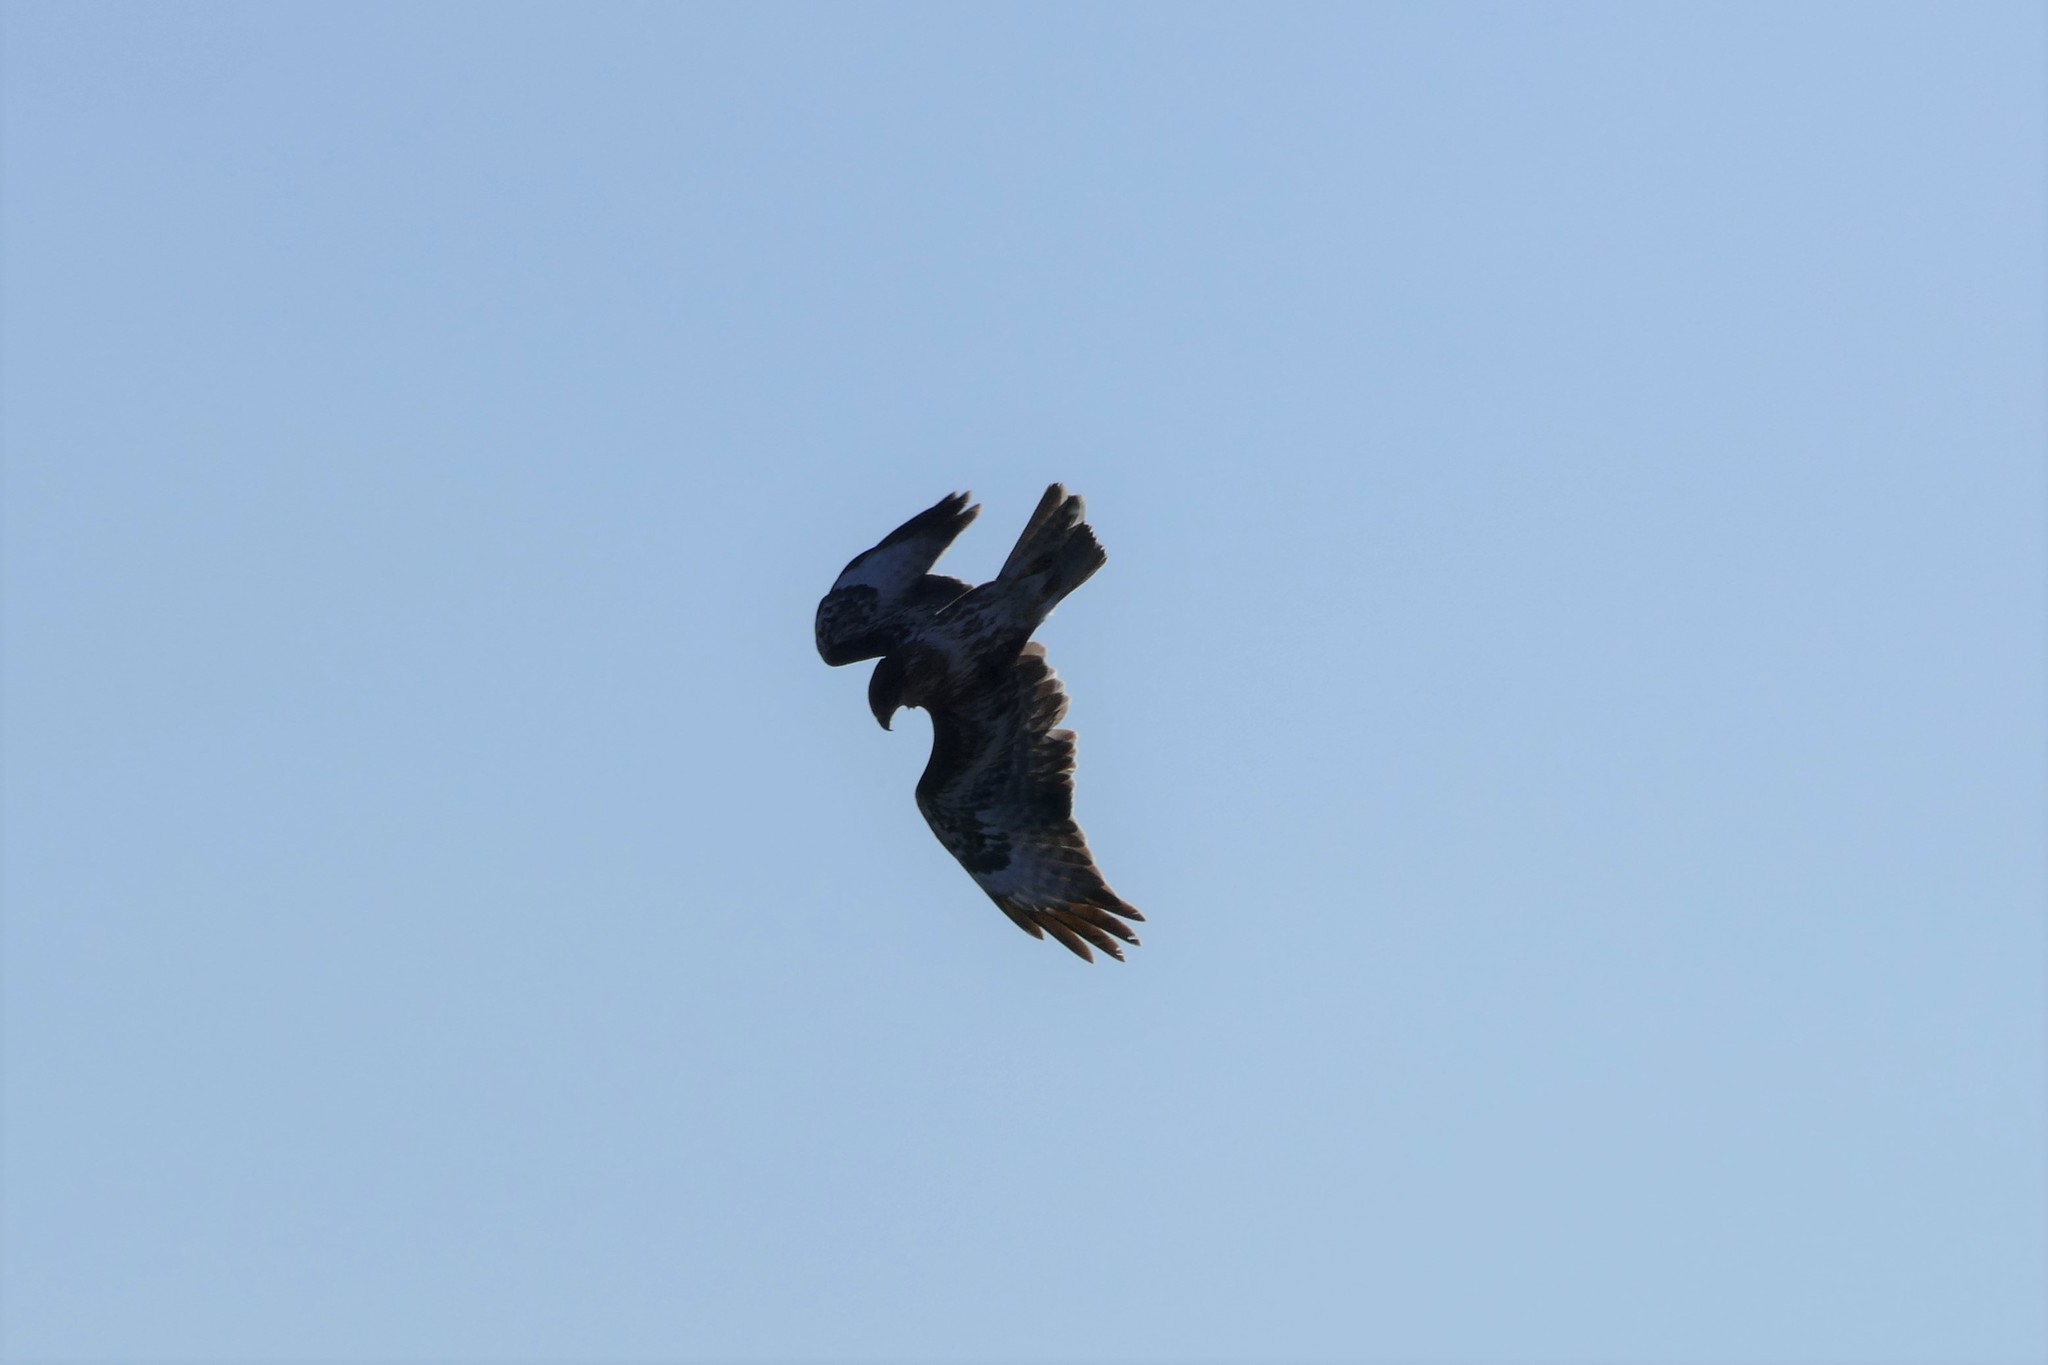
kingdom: Animalia
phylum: Chordata
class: Aves
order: Accipitriformes
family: Accipitridae
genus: Buteo
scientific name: Buteo buteo
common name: Common buzzard
